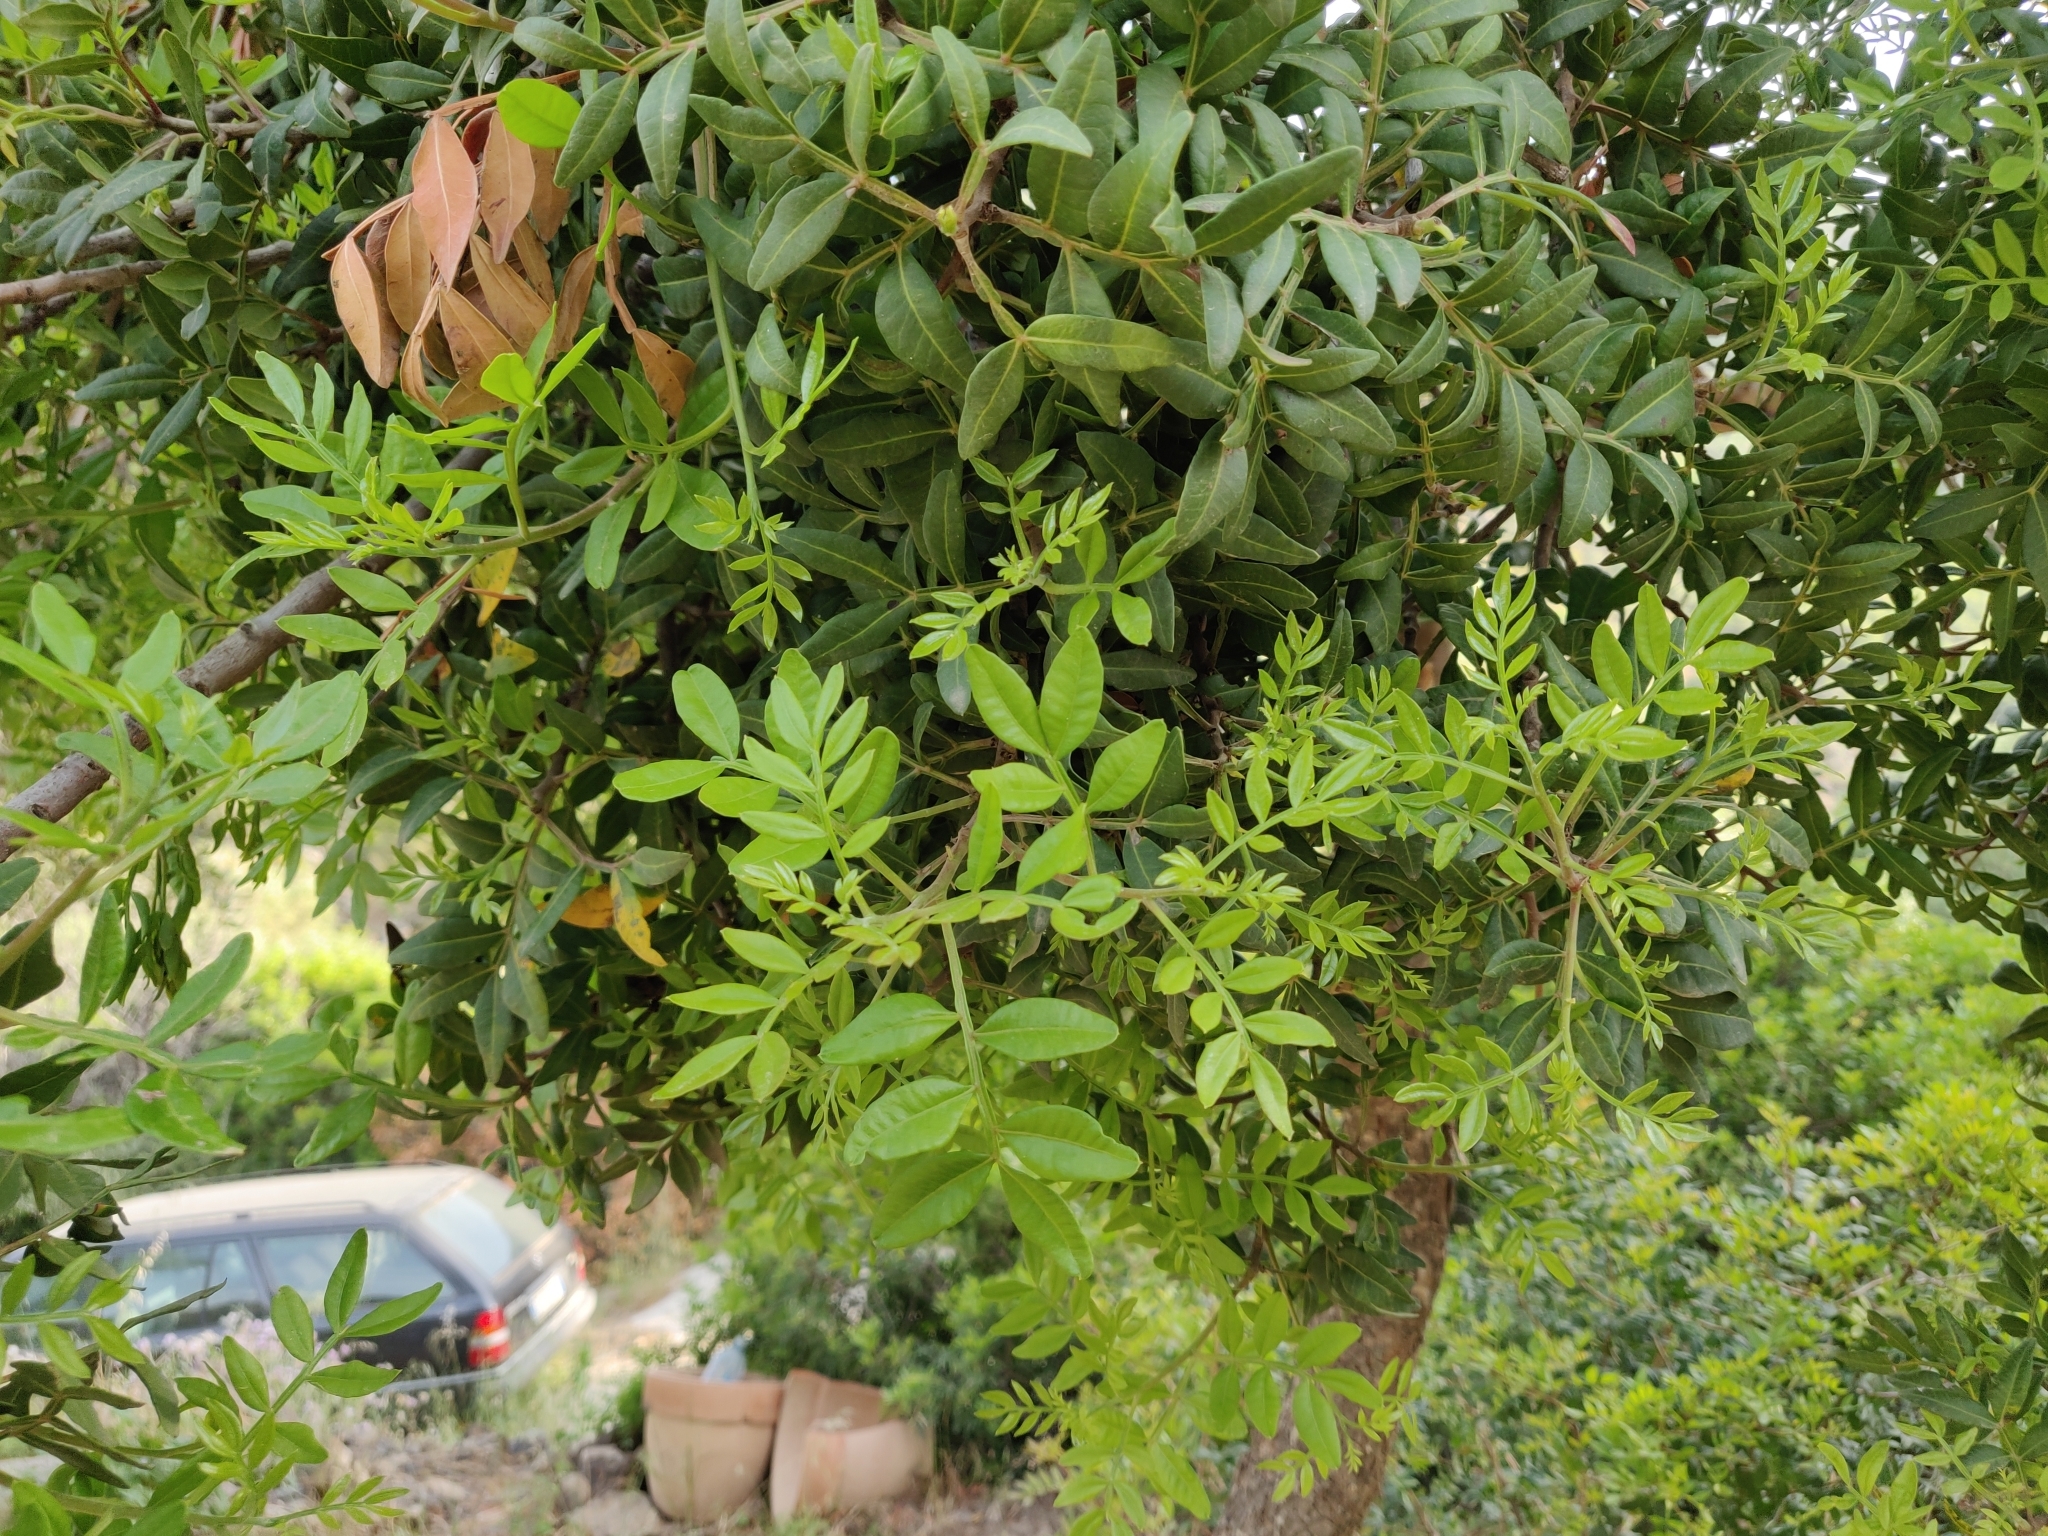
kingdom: Plantae
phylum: Tracheophyta
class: Magnoliopsida
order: Sapindales
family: Anacardiaceae
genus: Pistacia
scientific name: Pistacia lentiscus
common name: Lentisk
